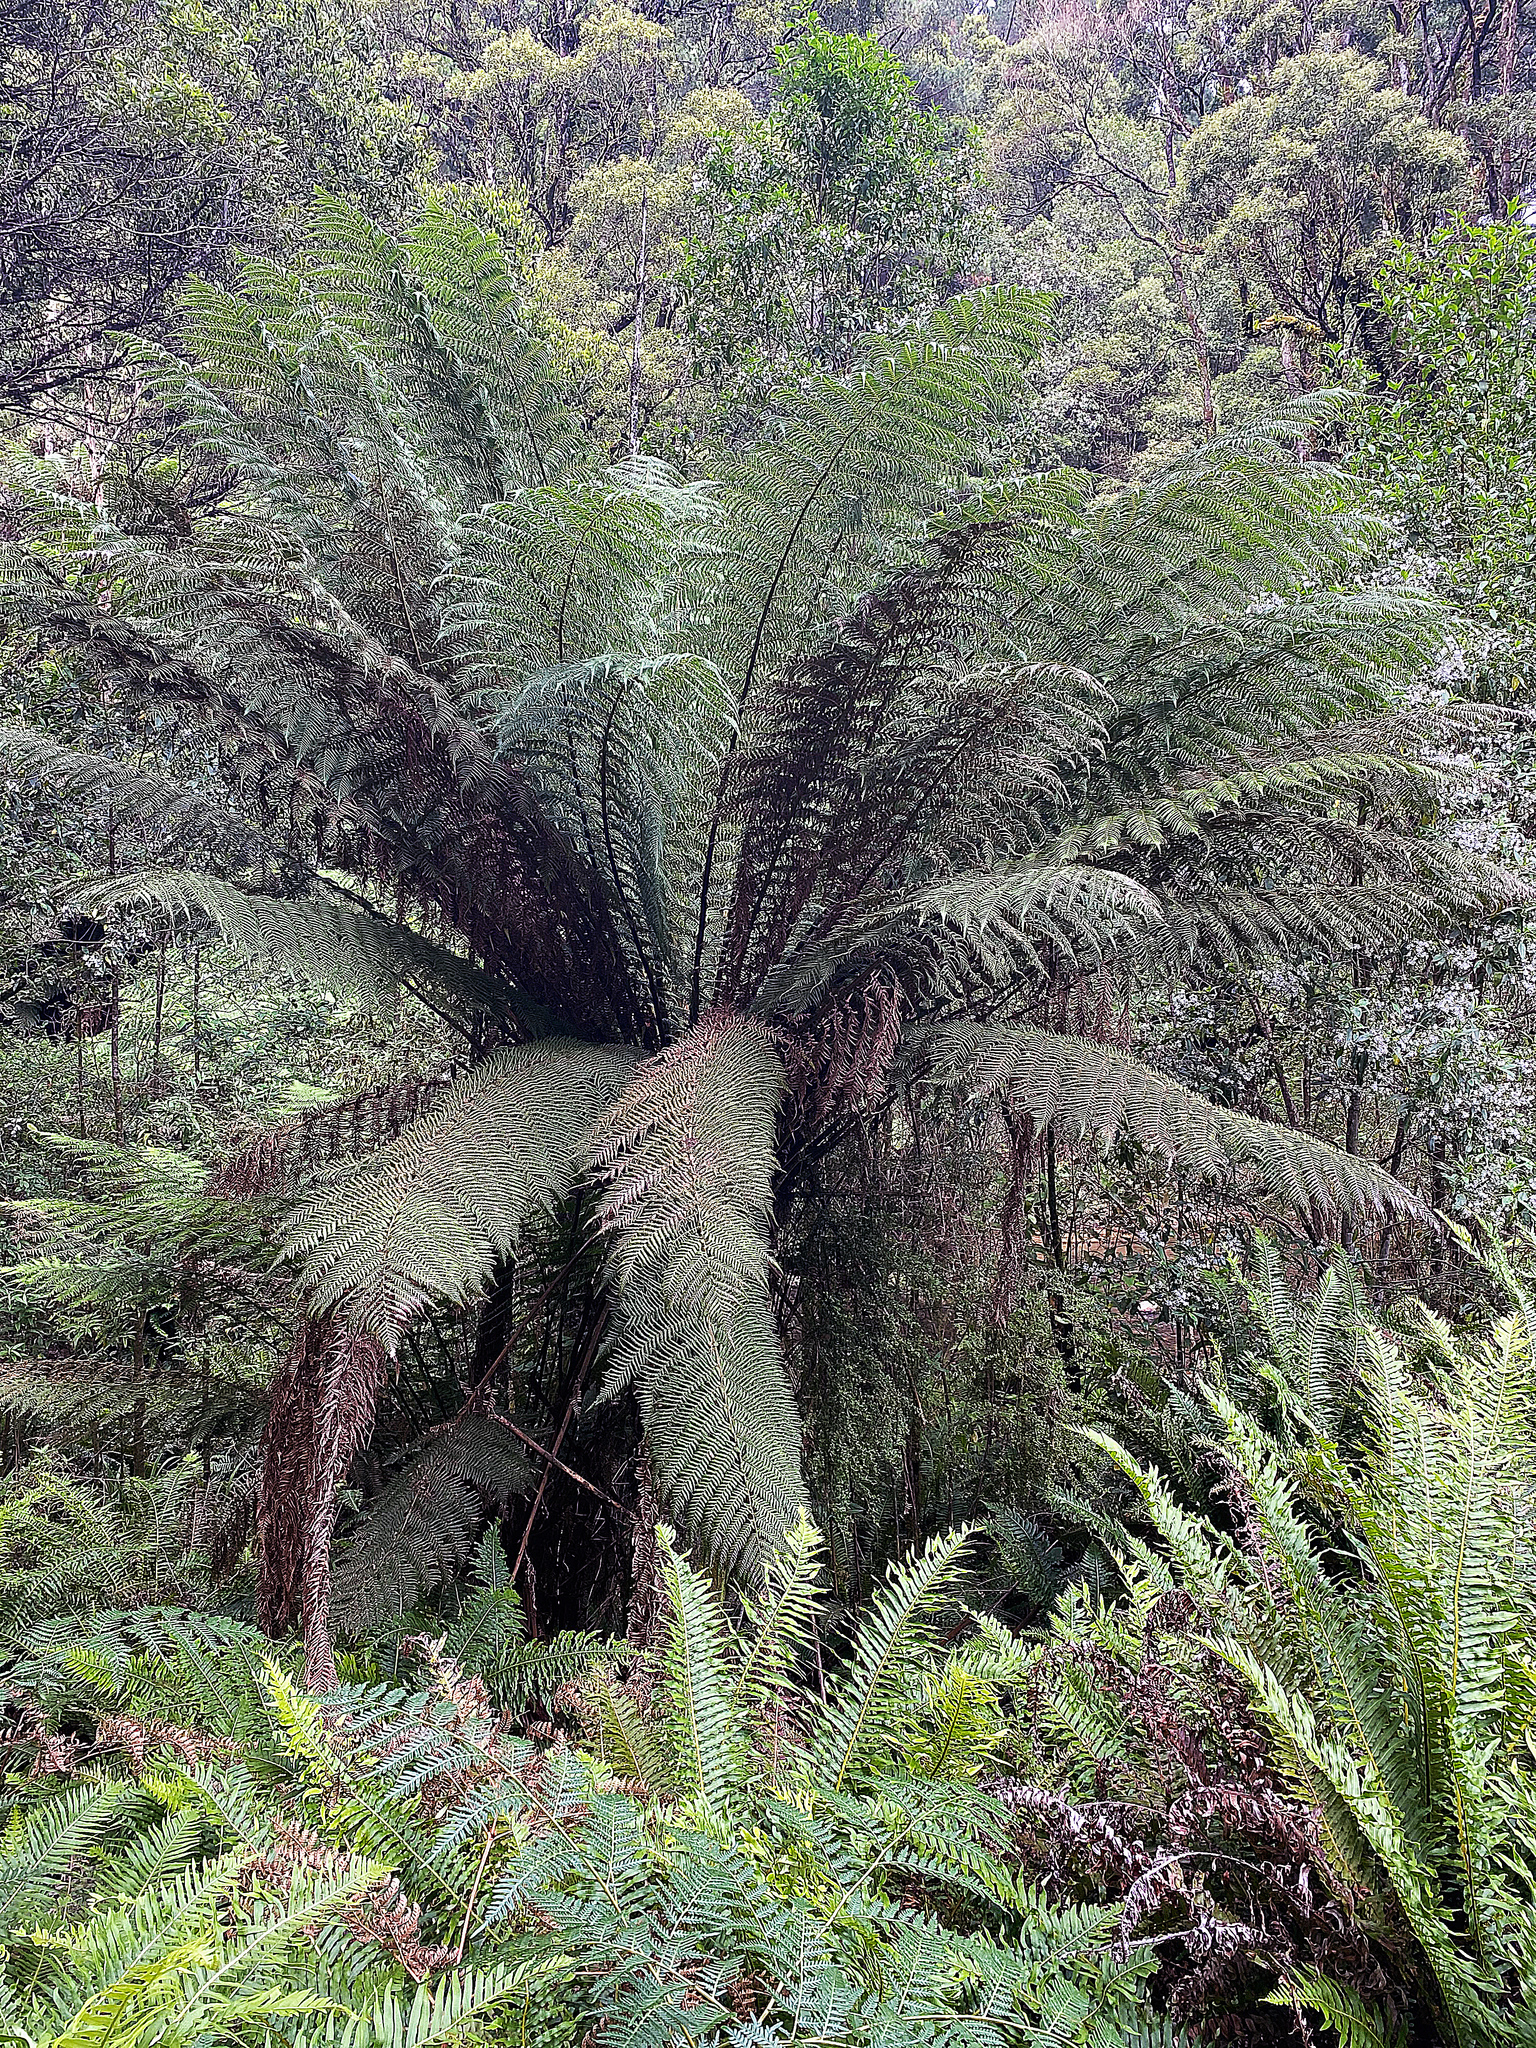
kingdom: Plantae
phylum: Tracheophyta
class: Polypodiopsida
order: Cyatheales
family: Dicksoniaceae
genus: Dicksonia
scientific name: Dicksonia antarctica
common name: Australian treefern
